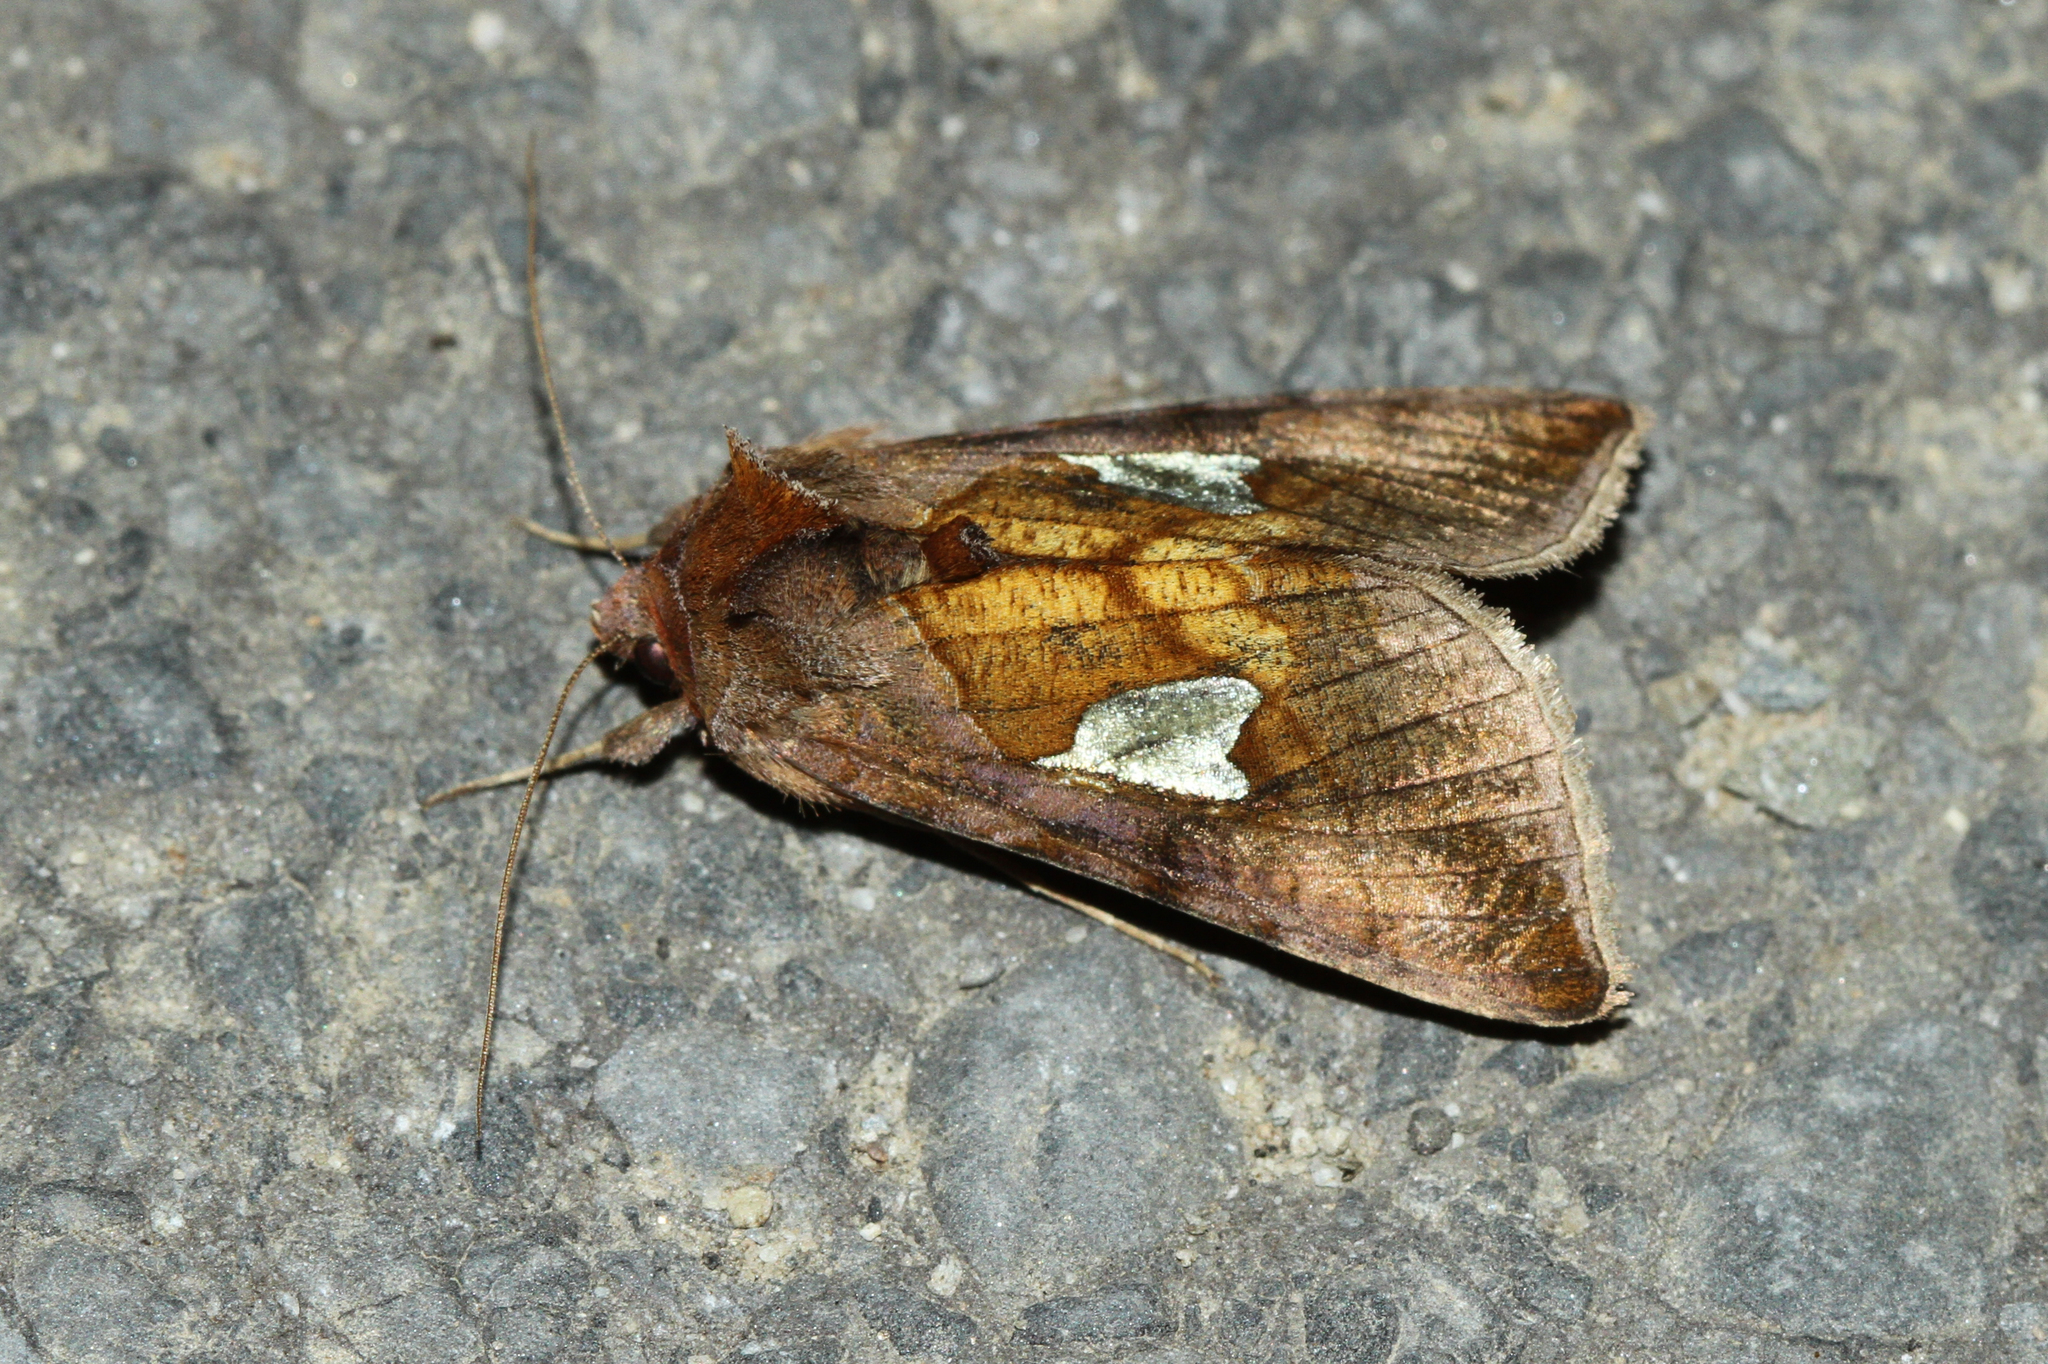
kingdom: Animalia
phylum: Arthropoda
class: Insecta
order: Lepidoptera
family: Noctuidae
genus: Autographa
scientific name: Autographa bractea
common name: Gold spangle
